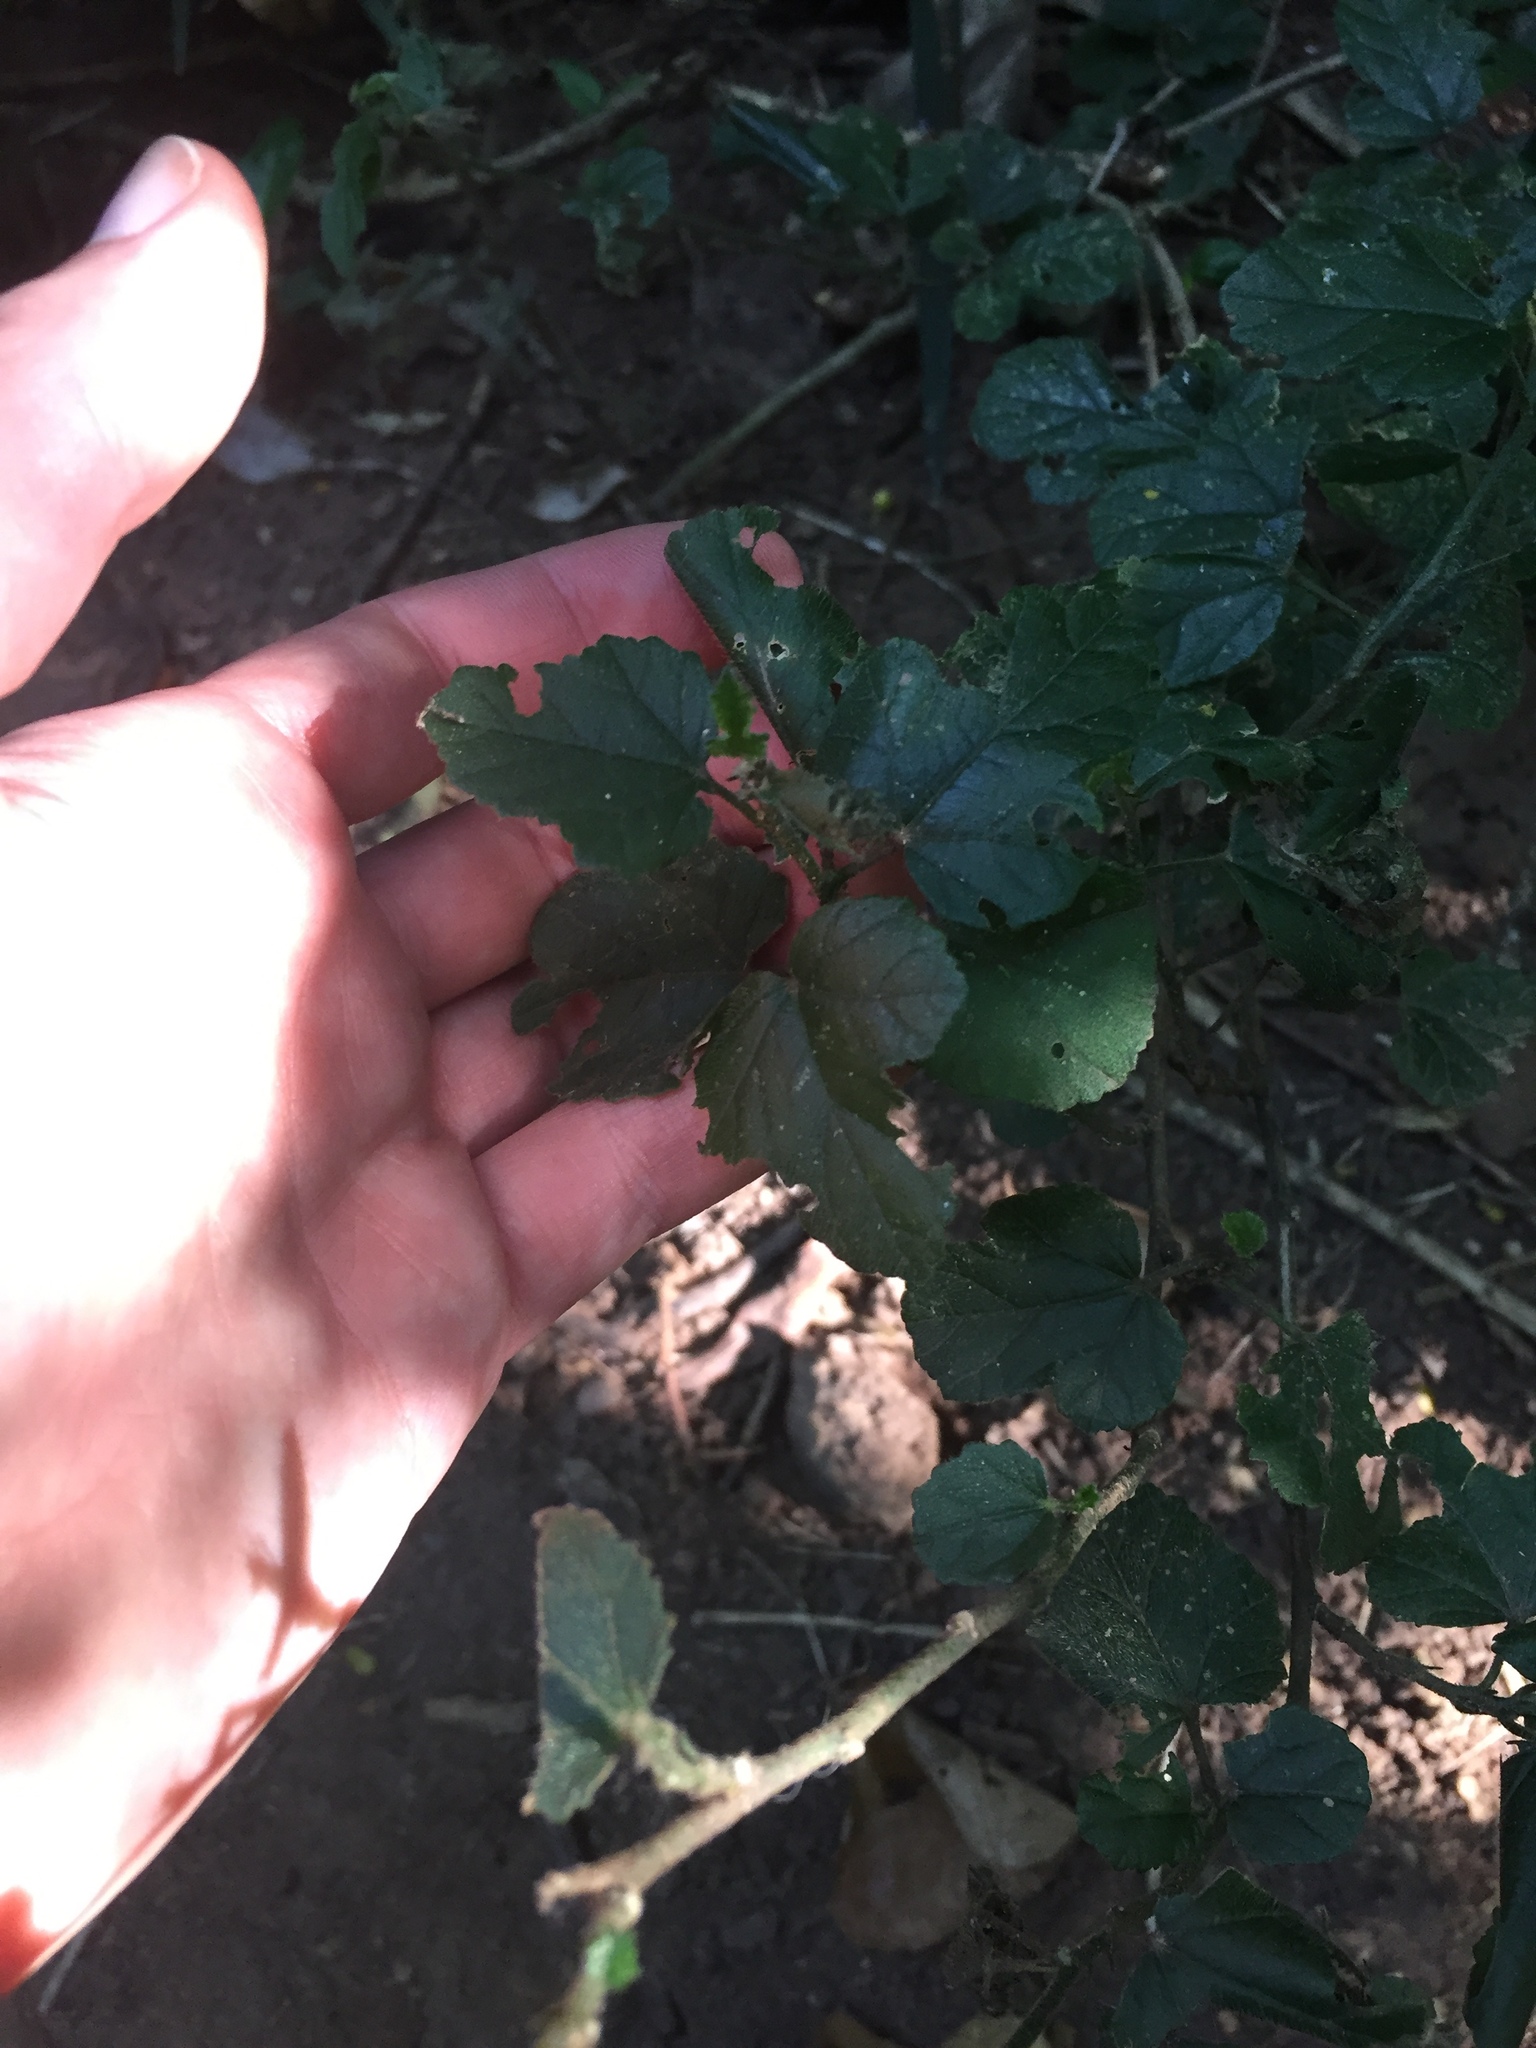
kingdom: Plantae
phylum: Tracheophyta
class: Magnoliopsida
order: Malvales
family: Malvaceae
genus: Hibiscus
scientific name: Hibiscus pedunculatus
